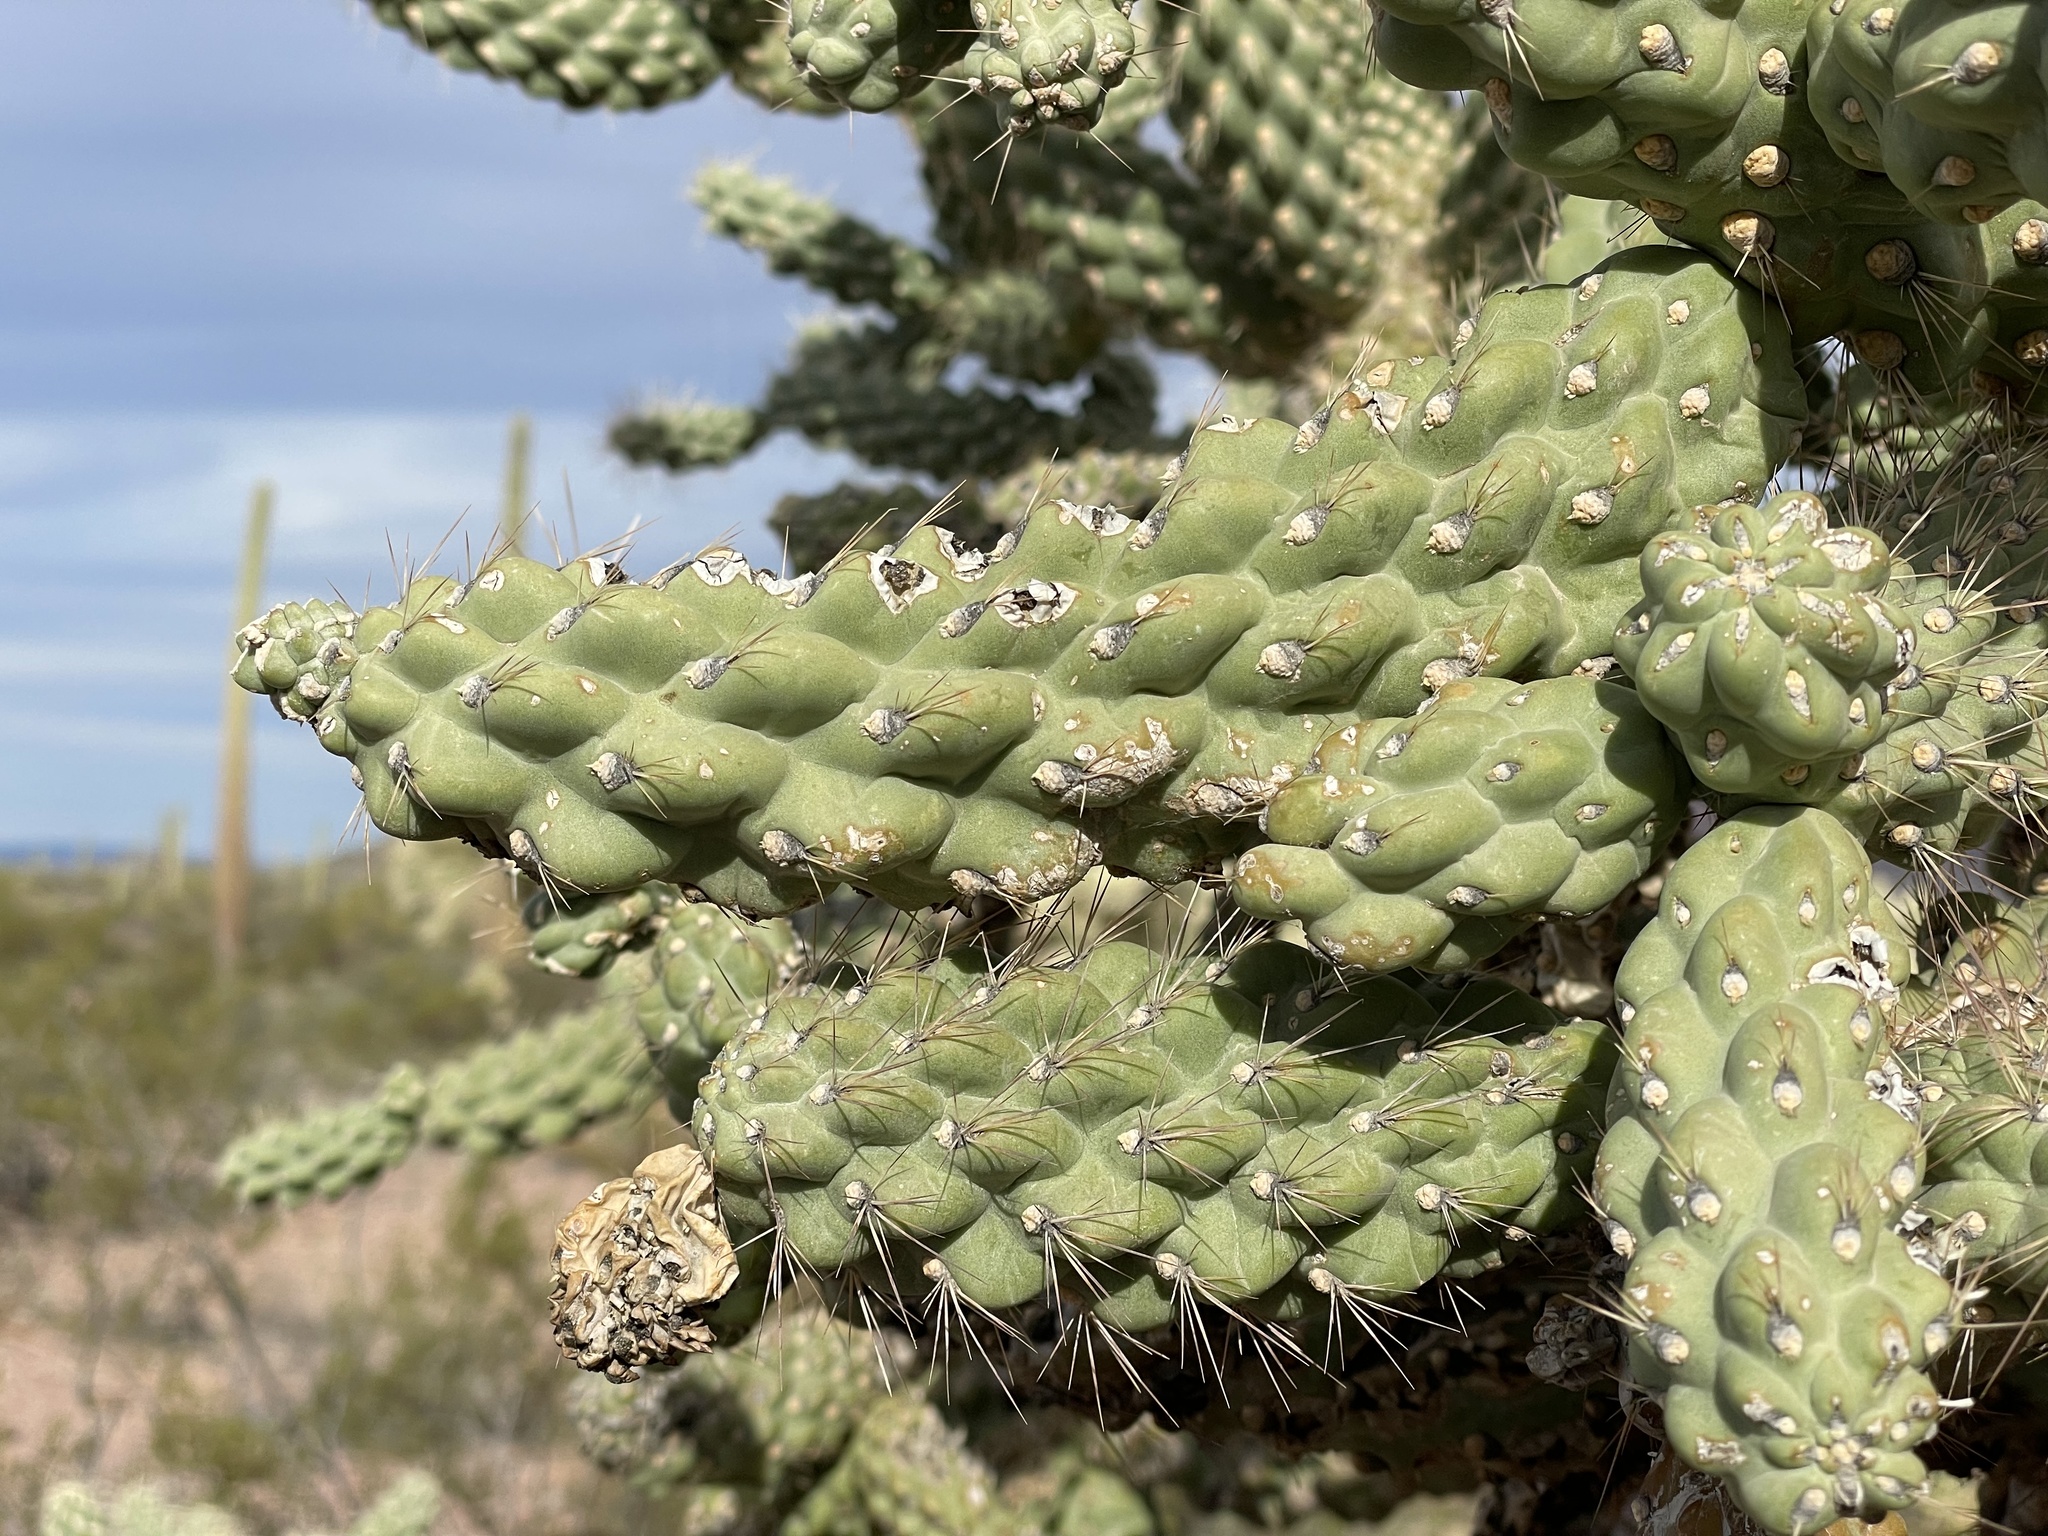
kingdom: Plantae
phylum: Tracheophyta
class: Magnoliopsida
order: Caryophyllales
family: Cactaceae
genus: Cylindropuntia
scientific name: Cylindropuntia fulgida
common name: Jumping cholla
